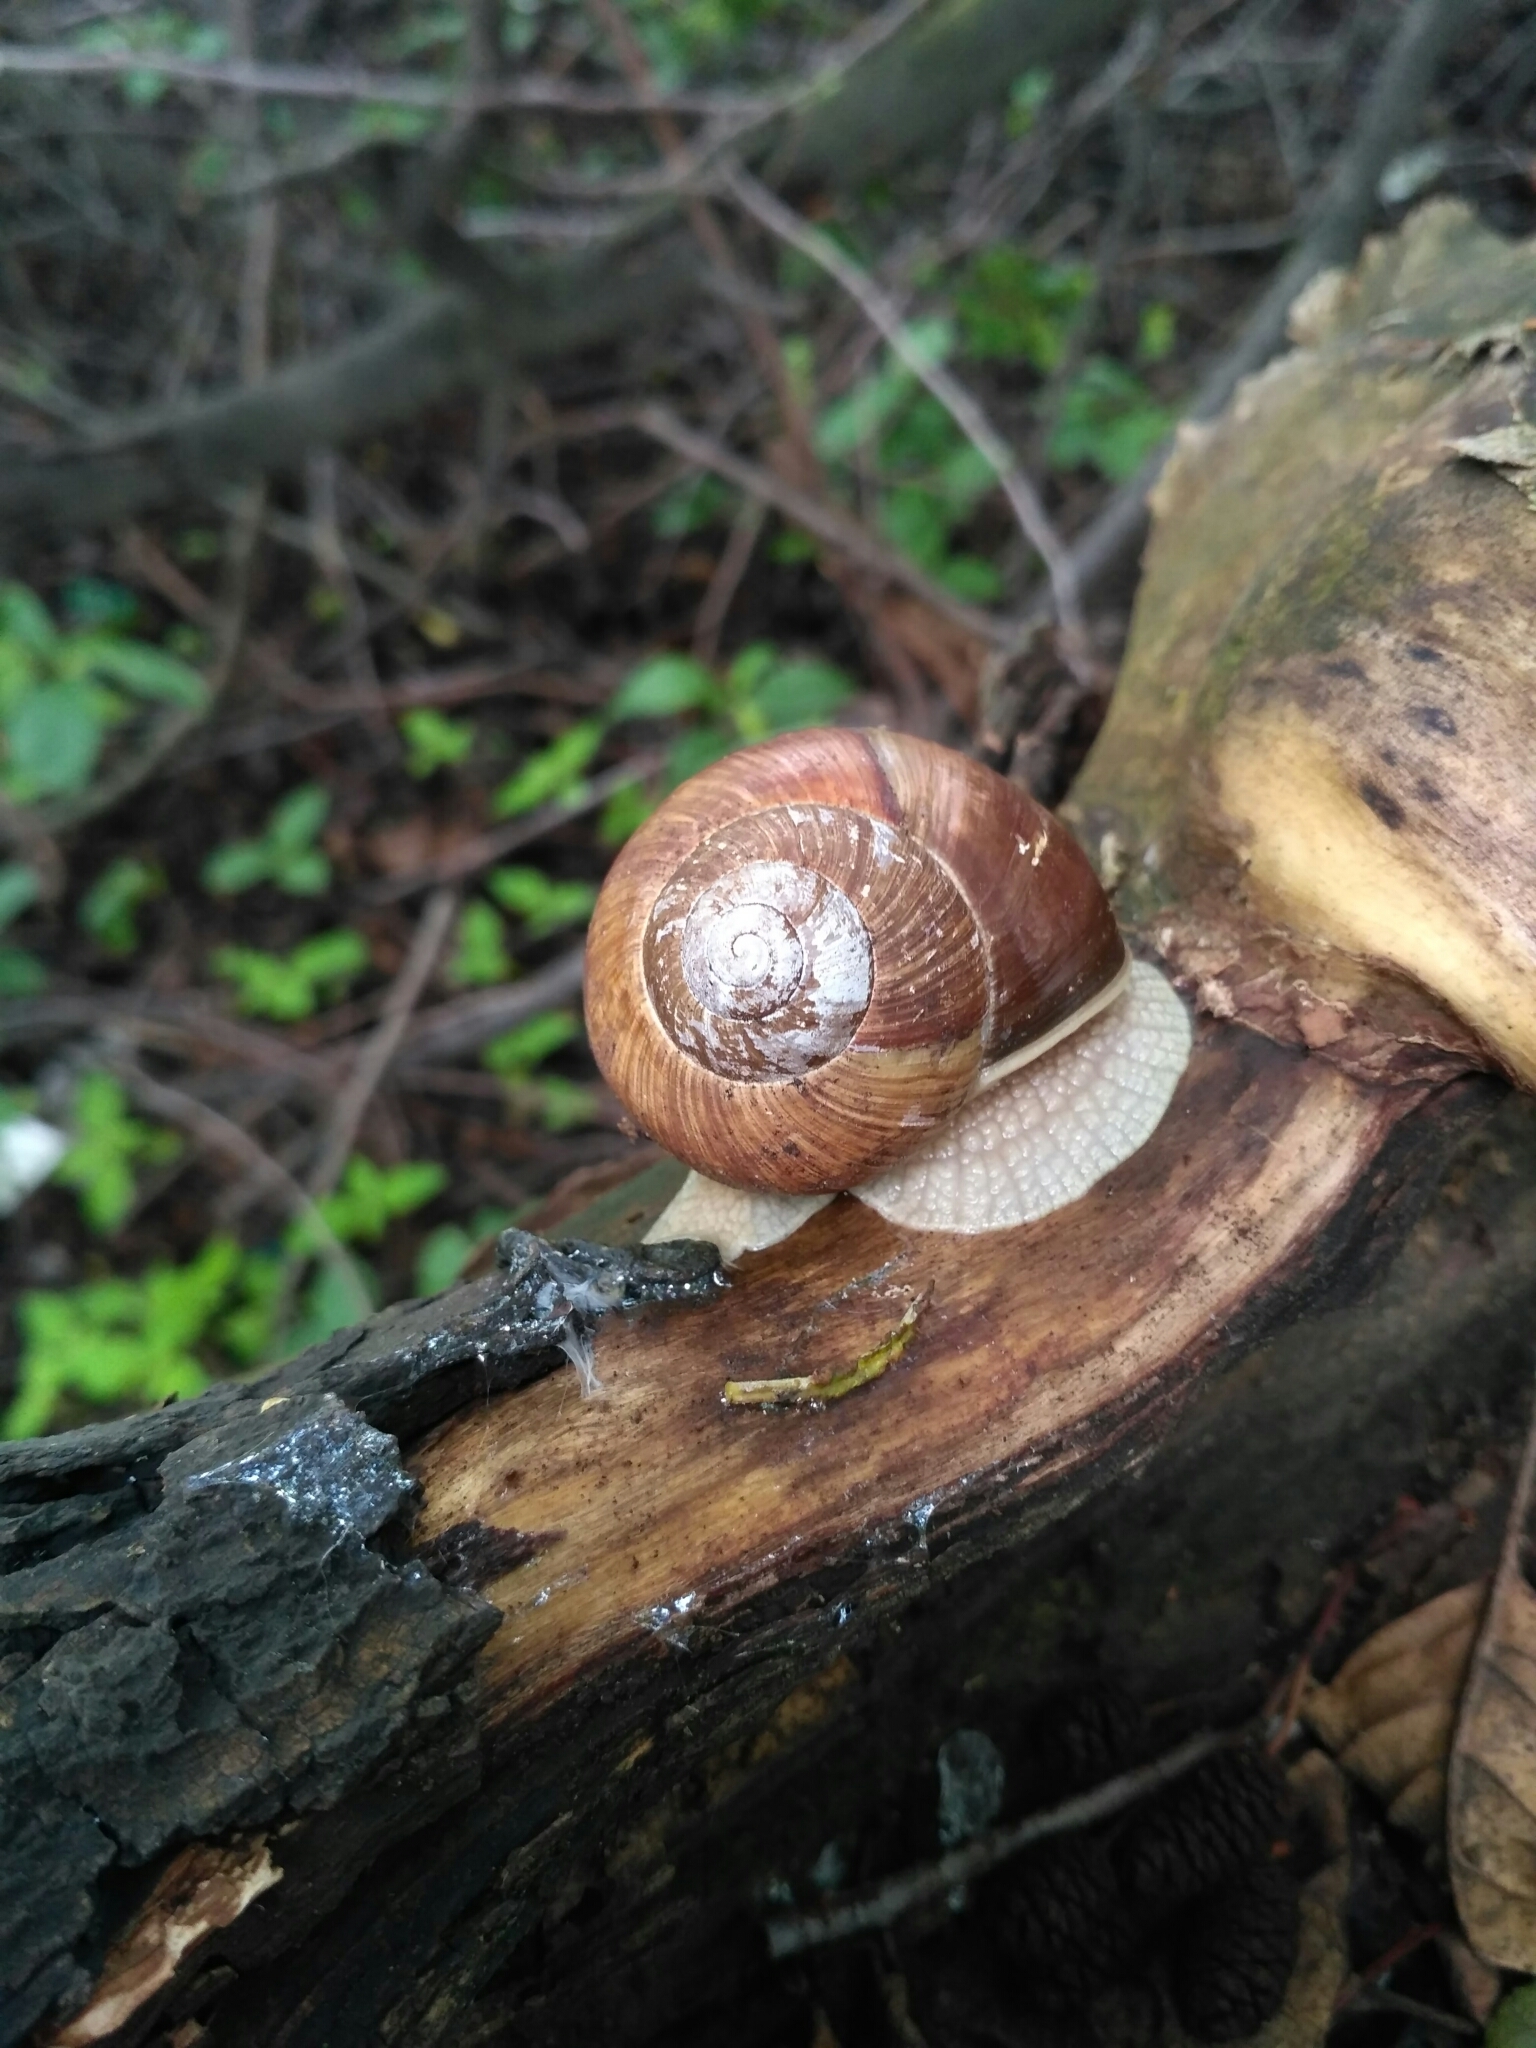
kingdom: Animalia
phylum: Mollusca
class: Gastropoda
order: Stylommatophora
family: Helicidae
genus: Helix
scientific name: Helix pomatia
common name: Roman snail
